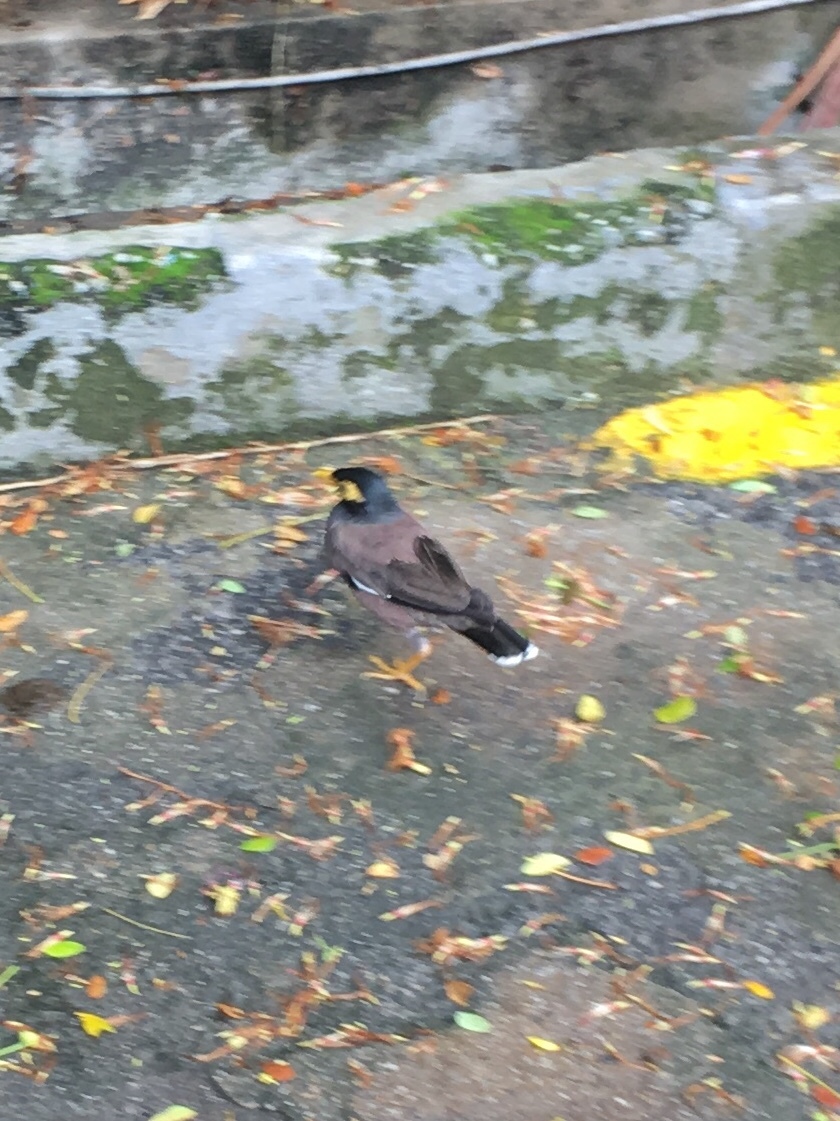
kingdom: Animalia
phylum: Chordata
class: Aves
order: Passeriformes
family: Sturnidae
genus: Acridotheres
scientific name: Acridotheres tristis
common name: Common myna
